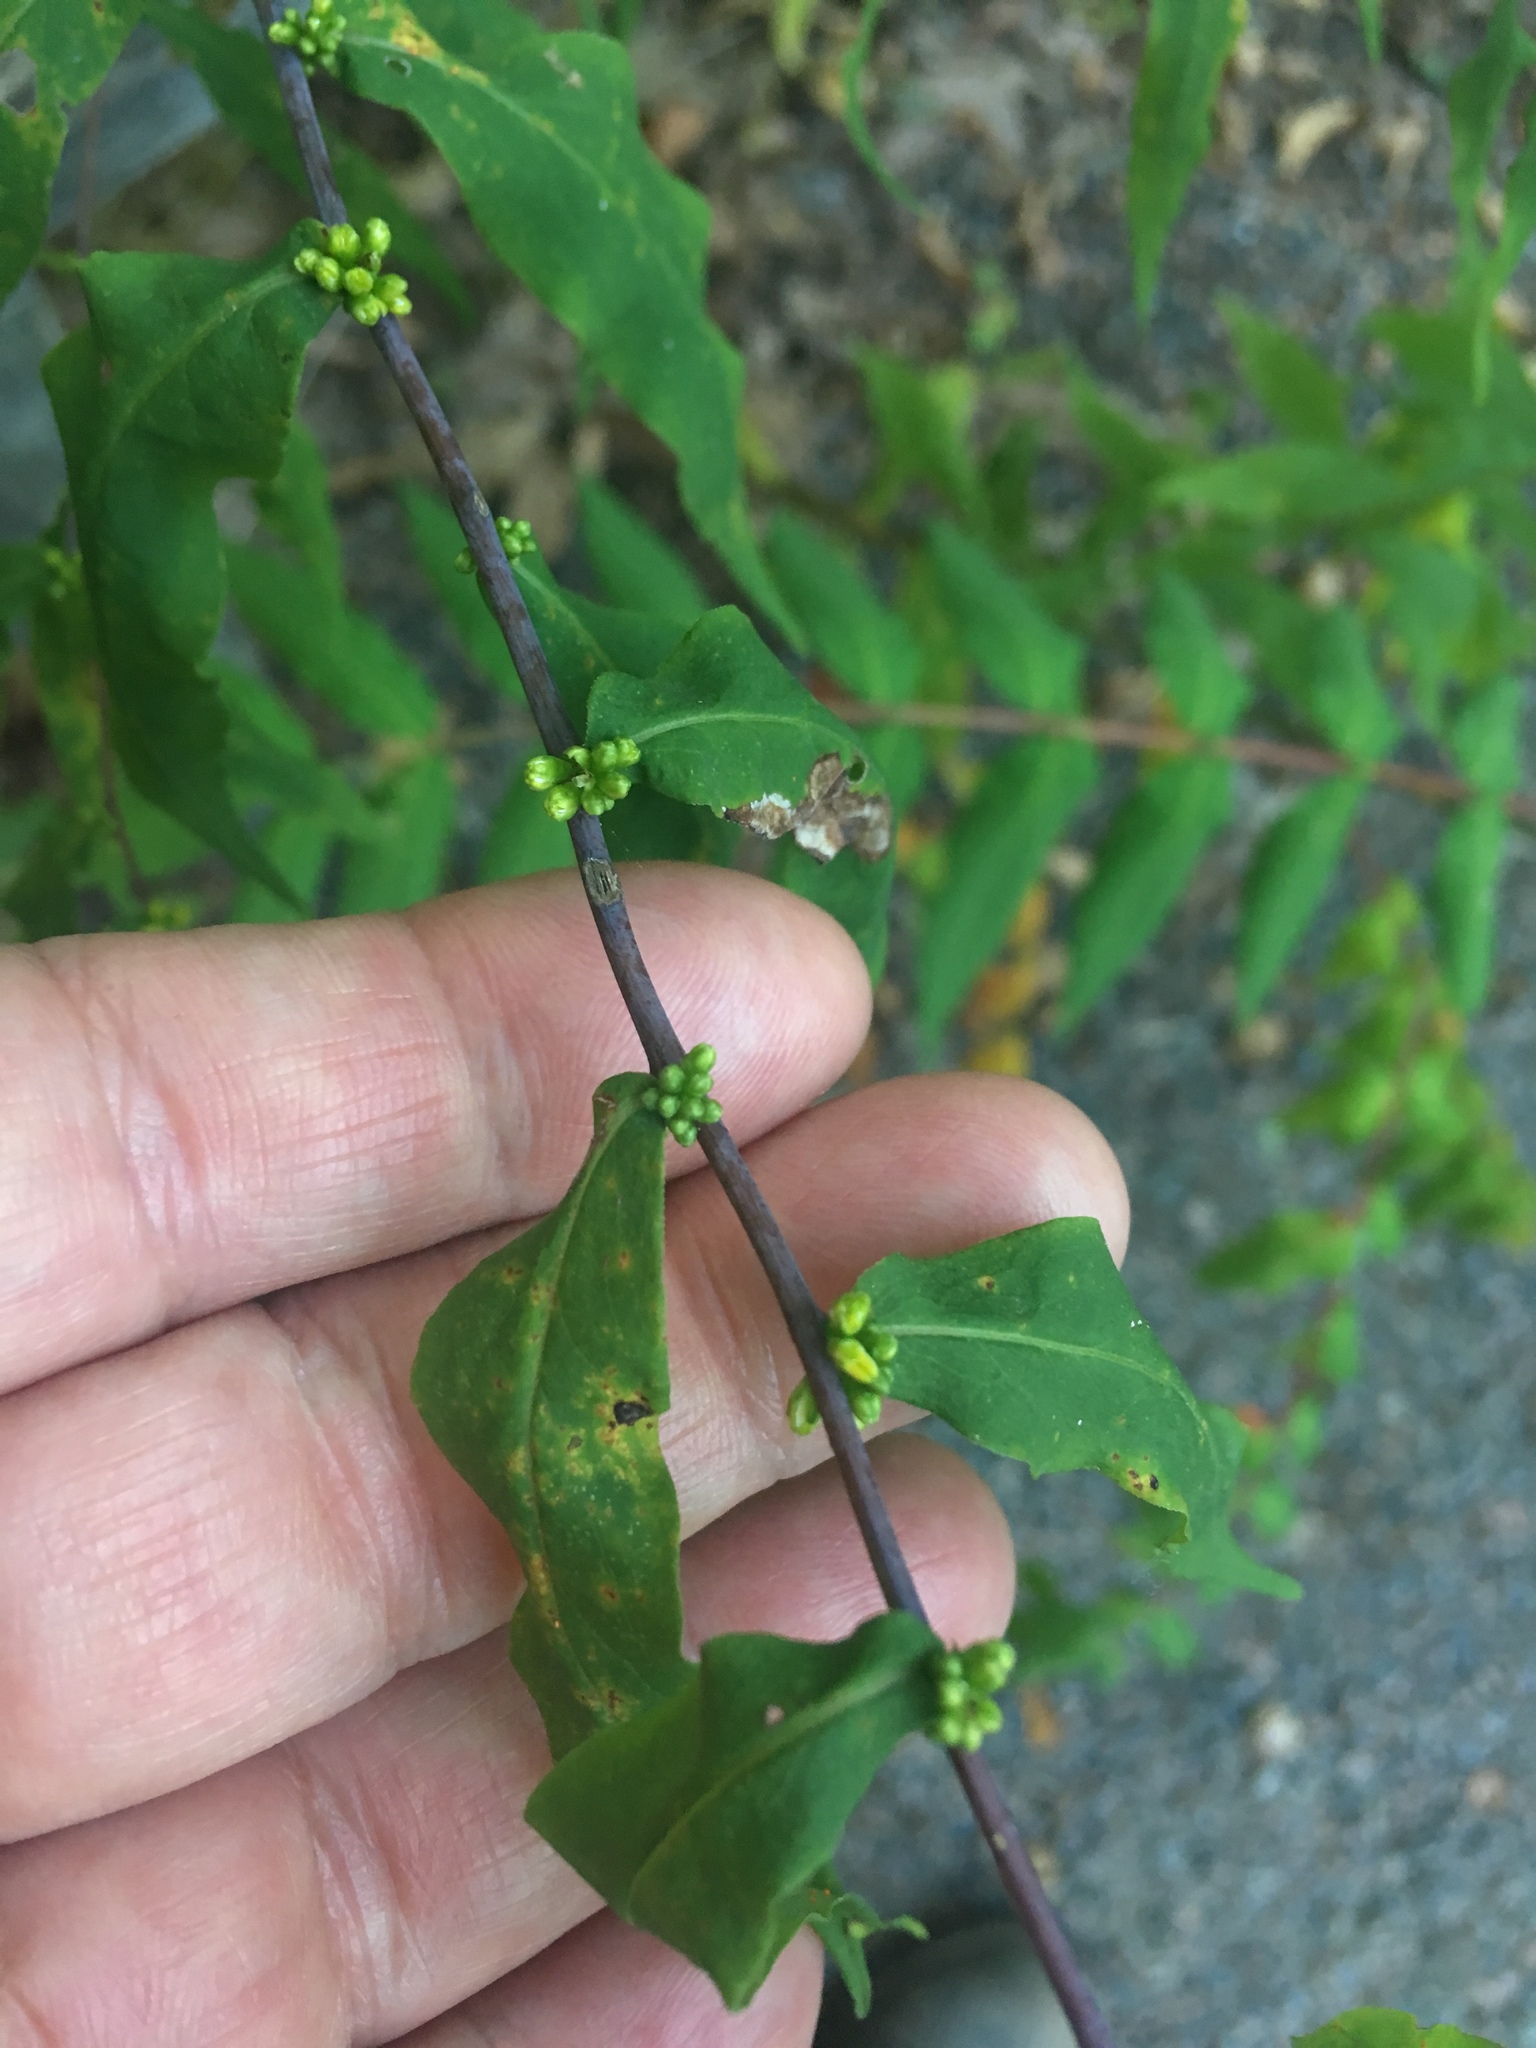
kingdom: Plantae
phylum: Tracheophyta
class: Magnoliopsida
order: Asterales
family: Asteraceae
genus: Solidago
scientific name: Solidago caesia
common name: Woodland goldenrod
